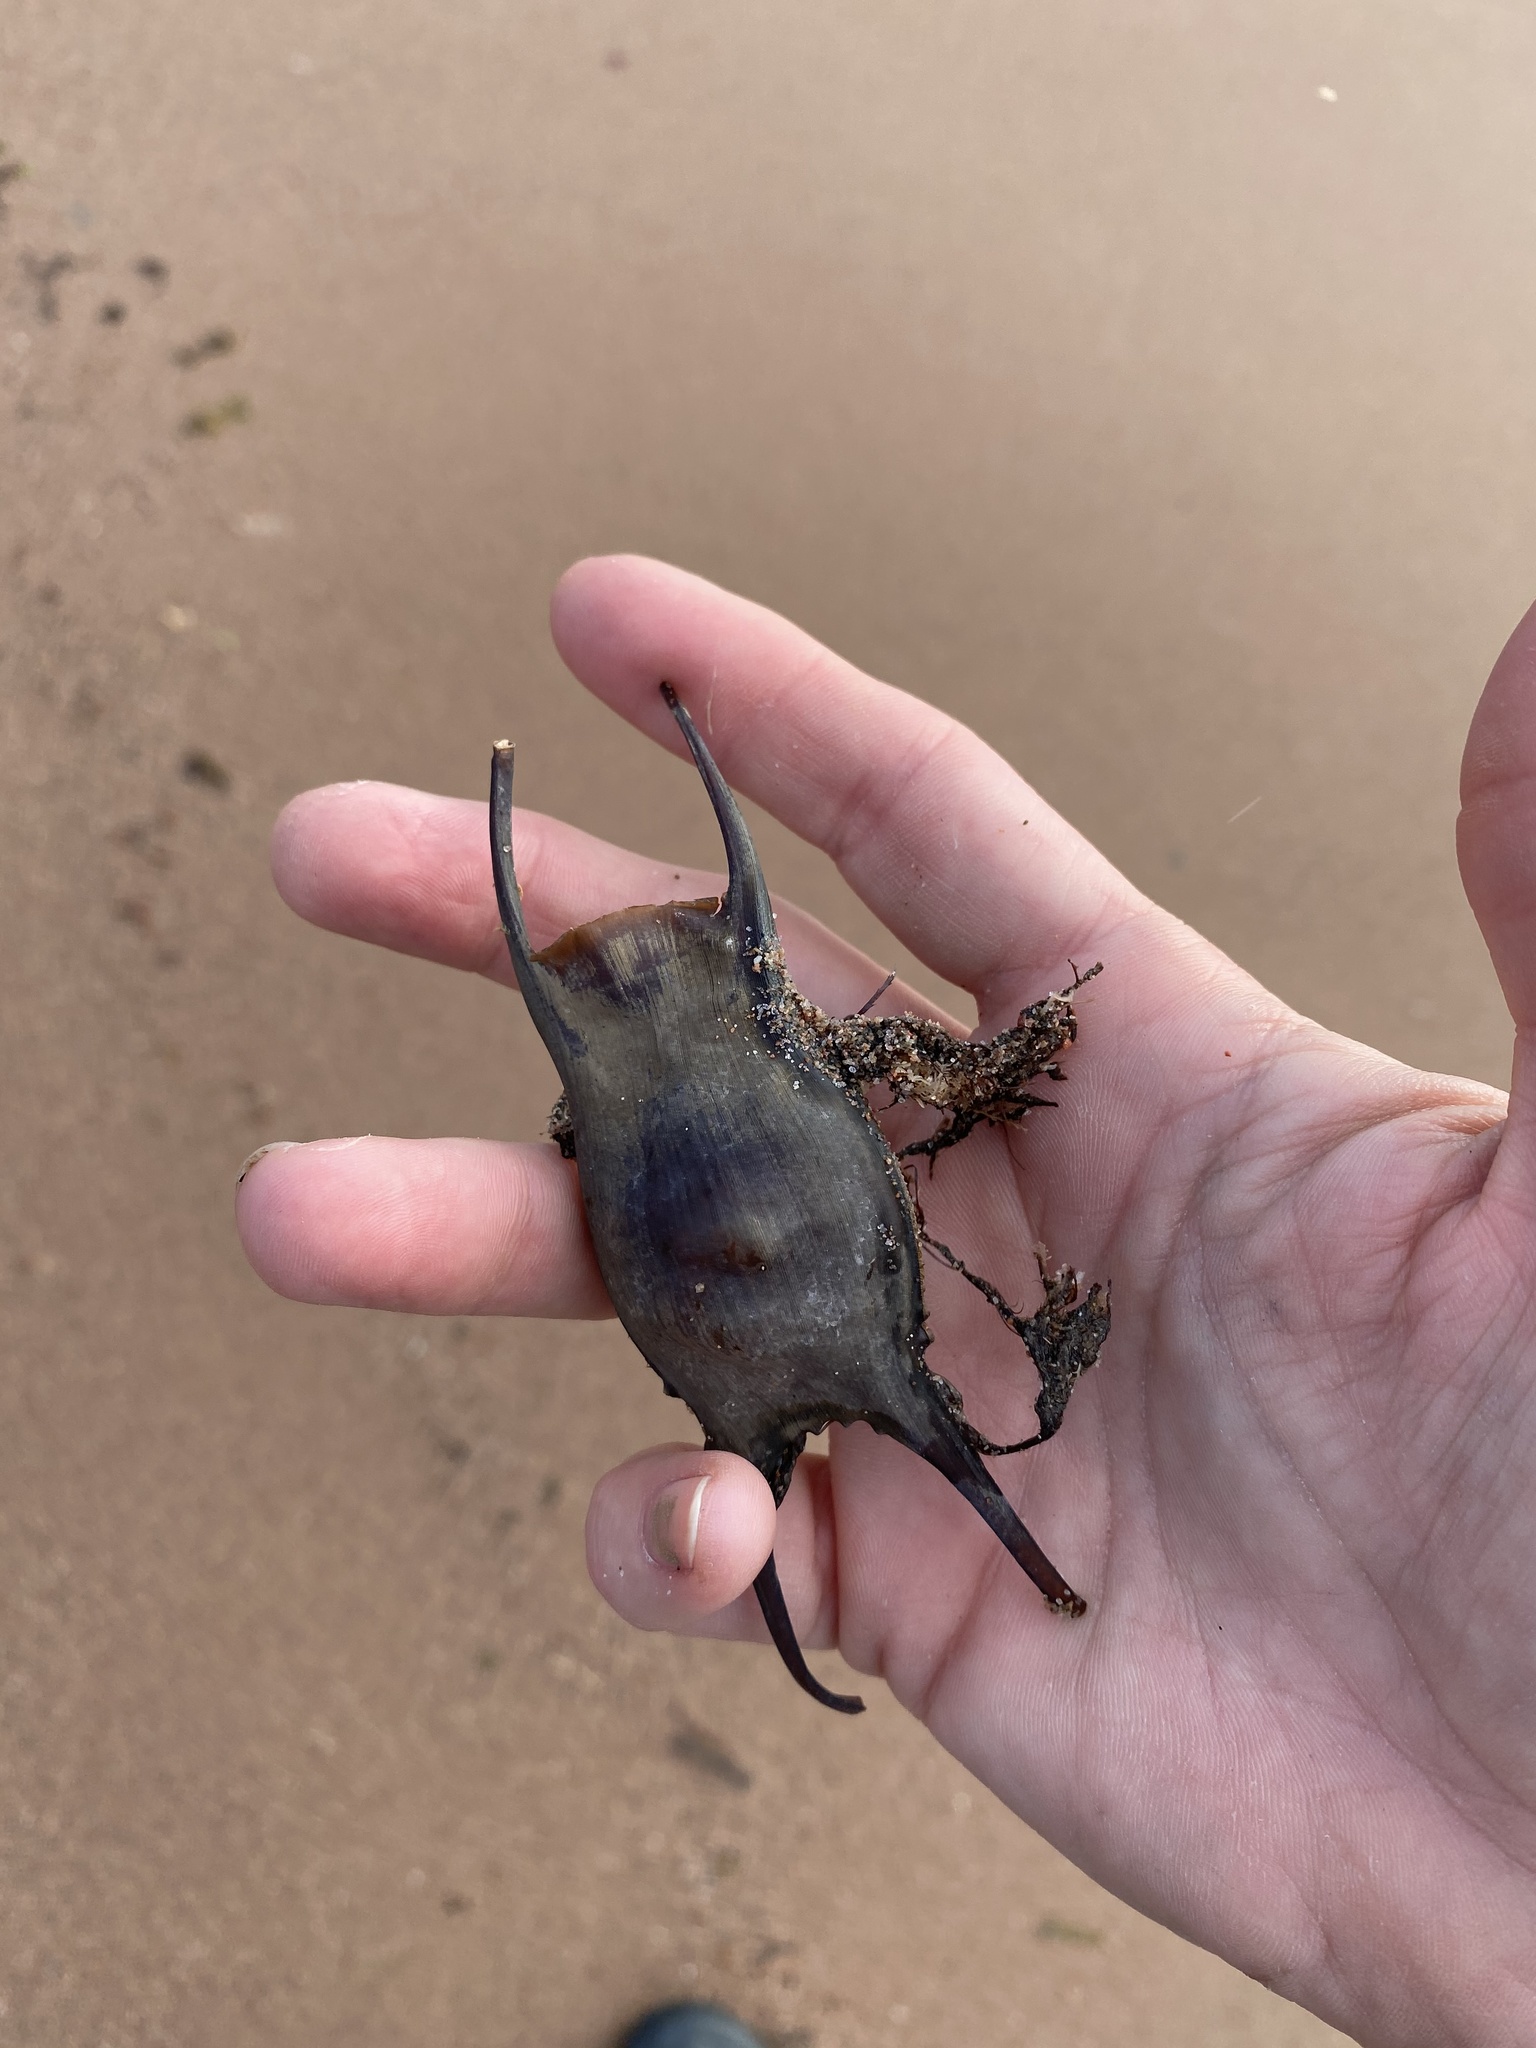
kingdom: Animalia
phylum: Chordata
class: Elasmobranchii
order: Rajiformes
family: Rajidae
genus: Leucoraja
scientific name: Leucoraja ocellata
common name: Winter skate
